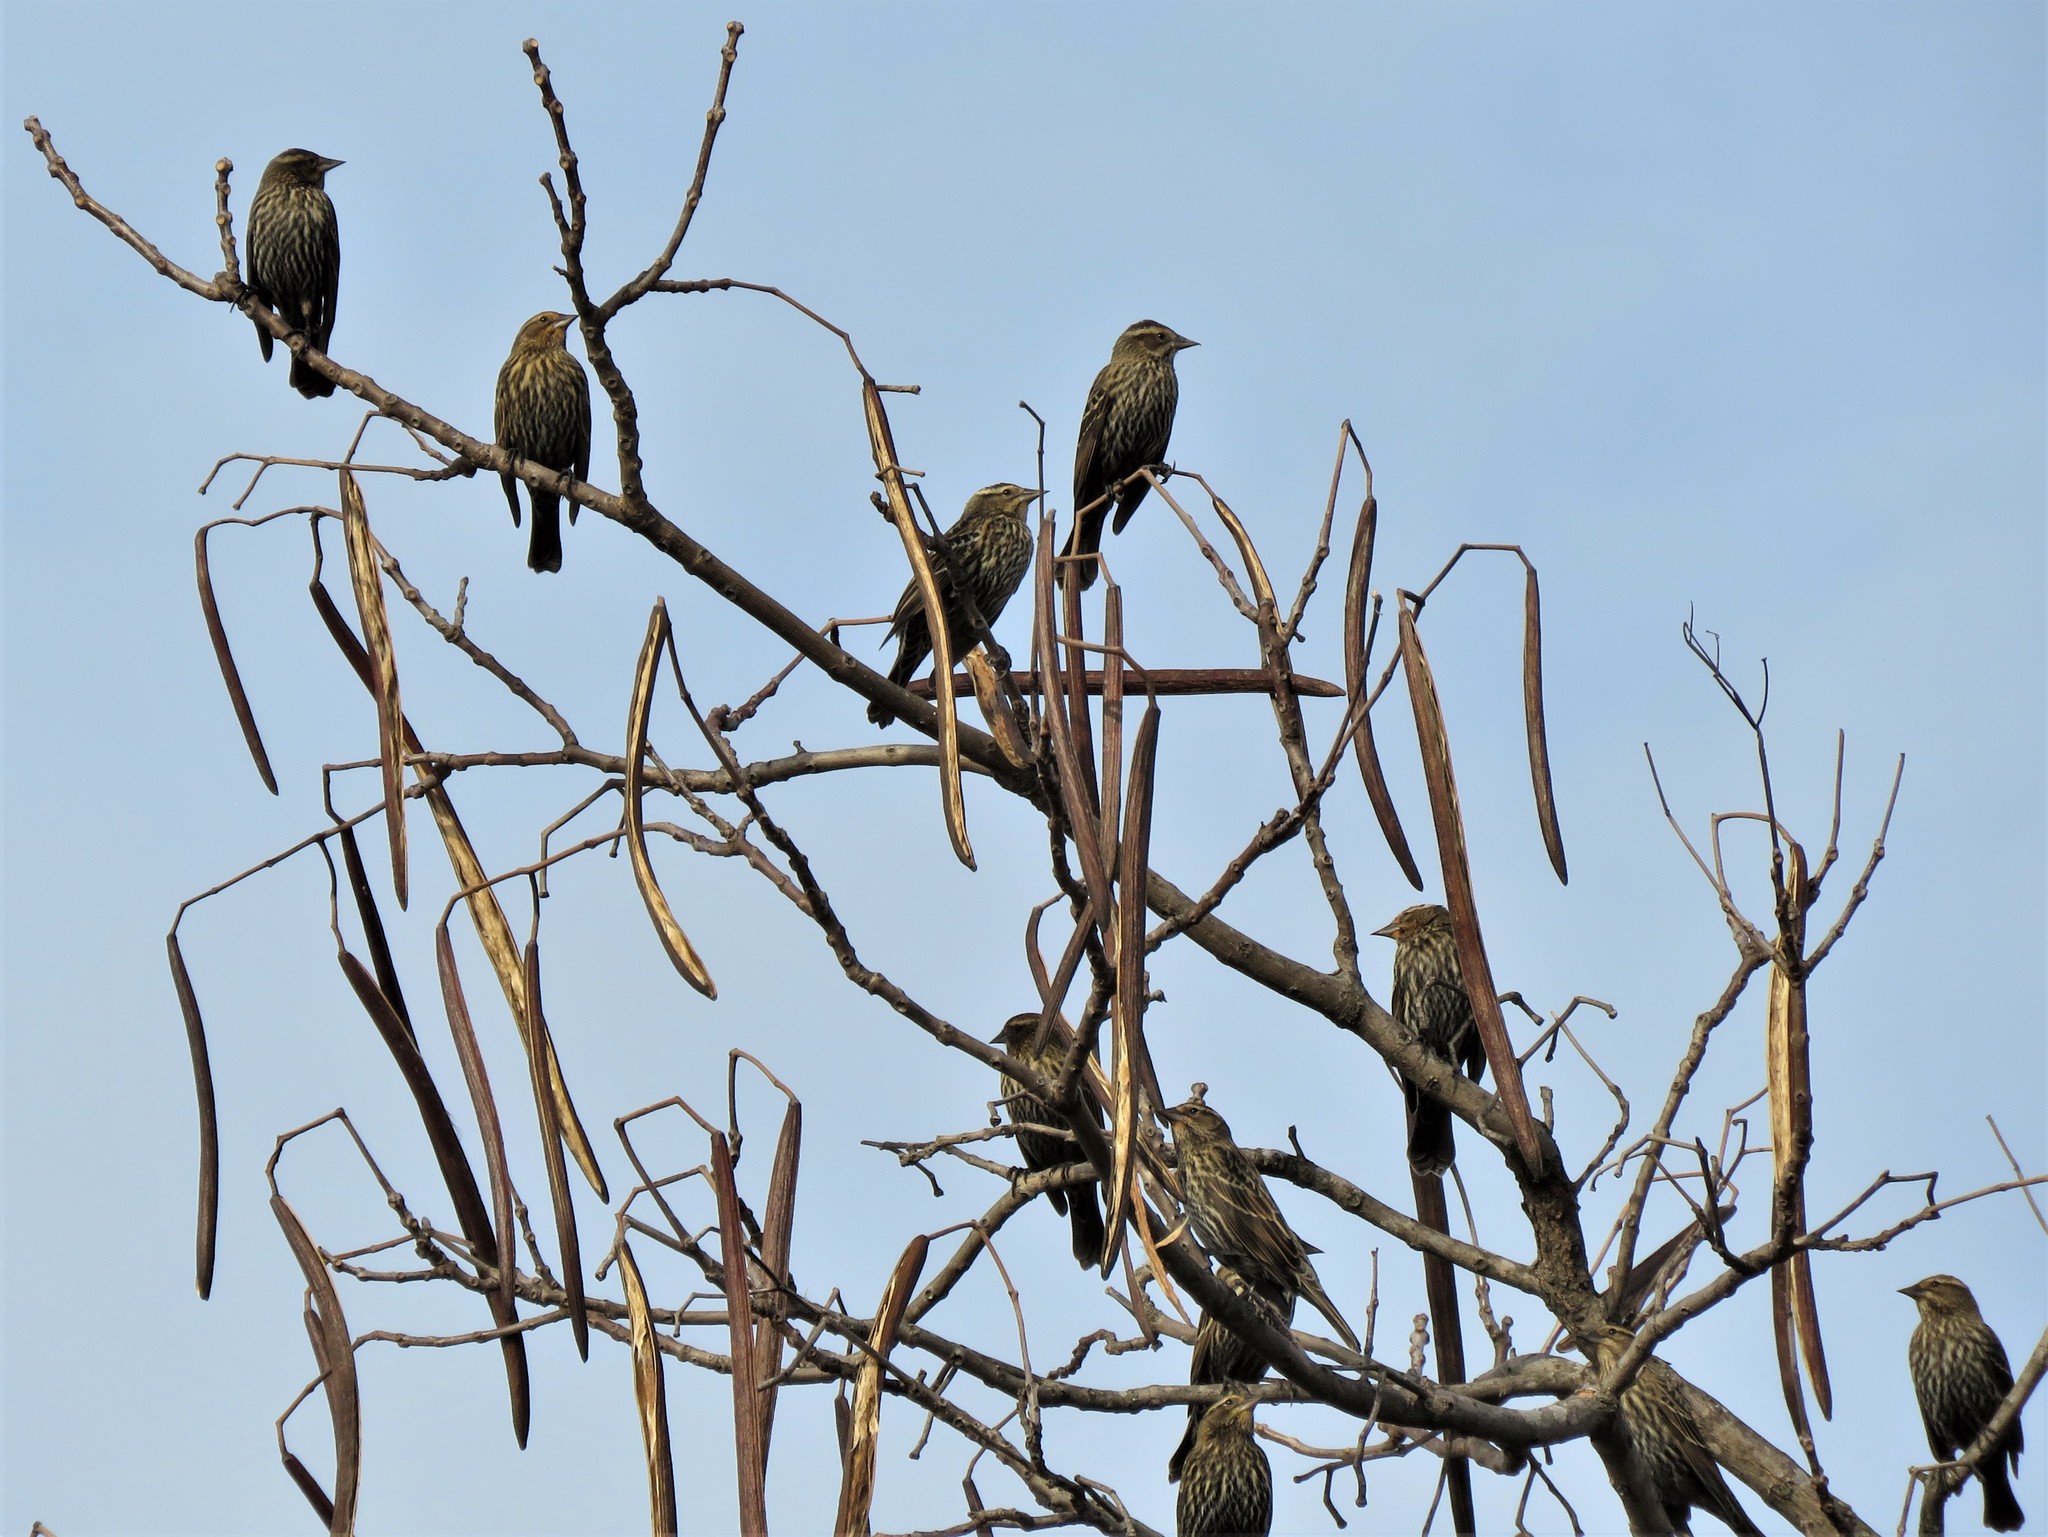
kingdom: Animalia
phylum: Chordata
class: Aves
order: Passeriformes
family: Icteridae
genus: Agelaius
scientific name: Agelaius phoeniceus
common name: Red-winged blackbird
